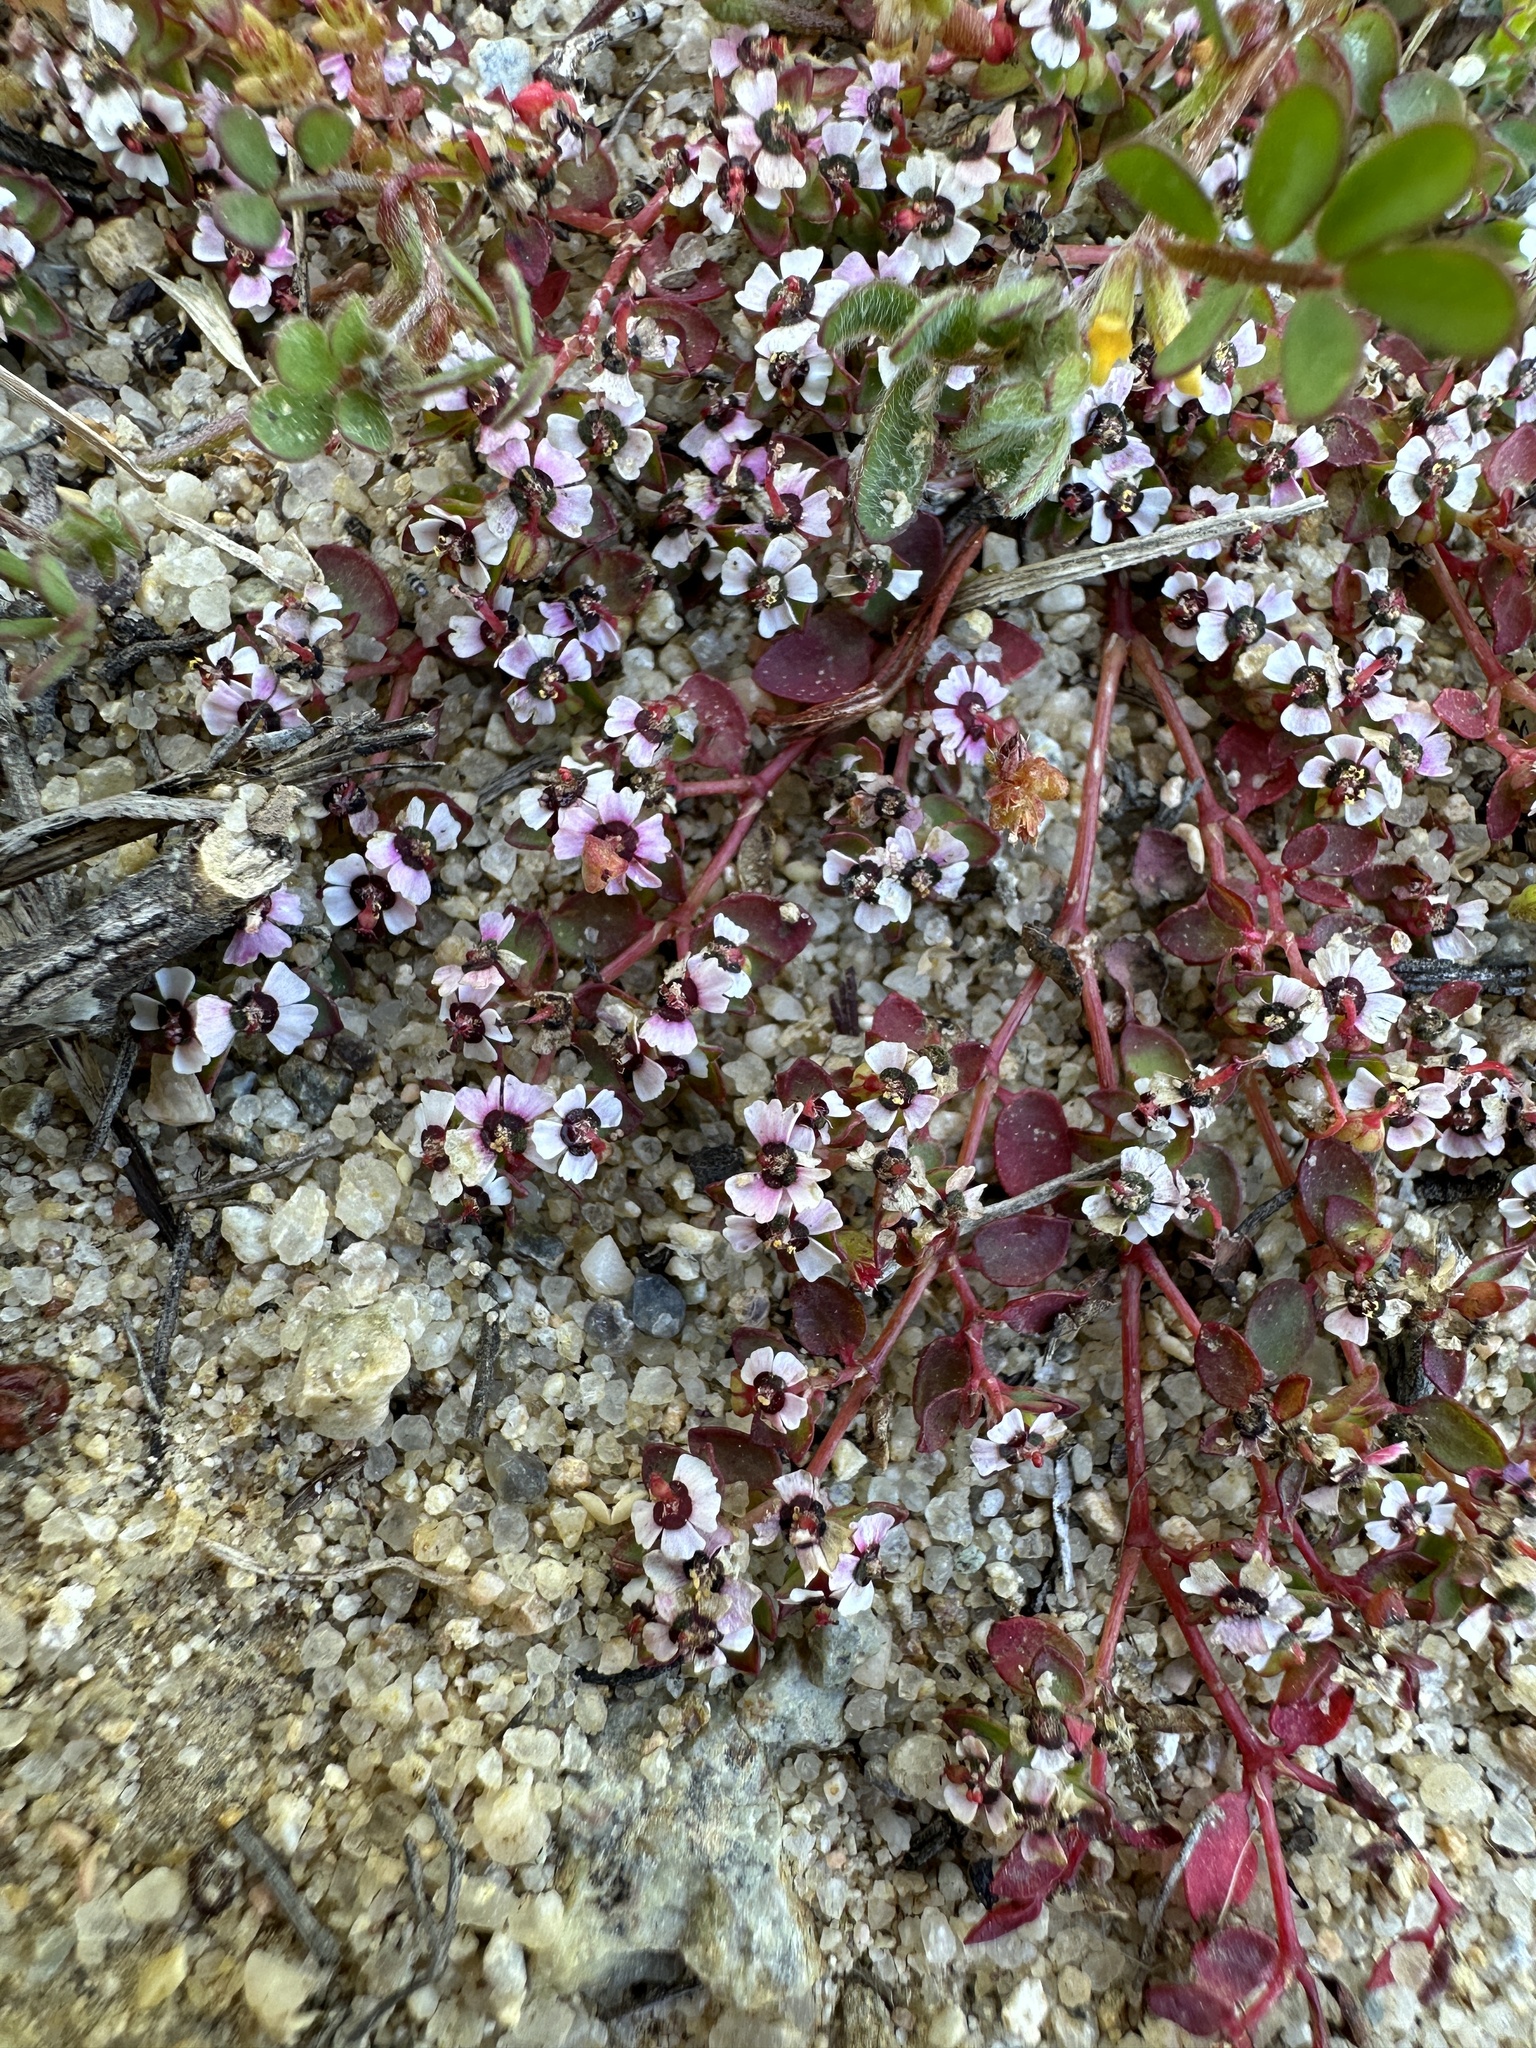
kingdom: Plantae
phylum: Tracheophyta
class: Magnoliopsida
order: Malpighiales
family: Euphorbiaceae
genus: Euphorbia
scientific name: Euphorbia polycarpa
